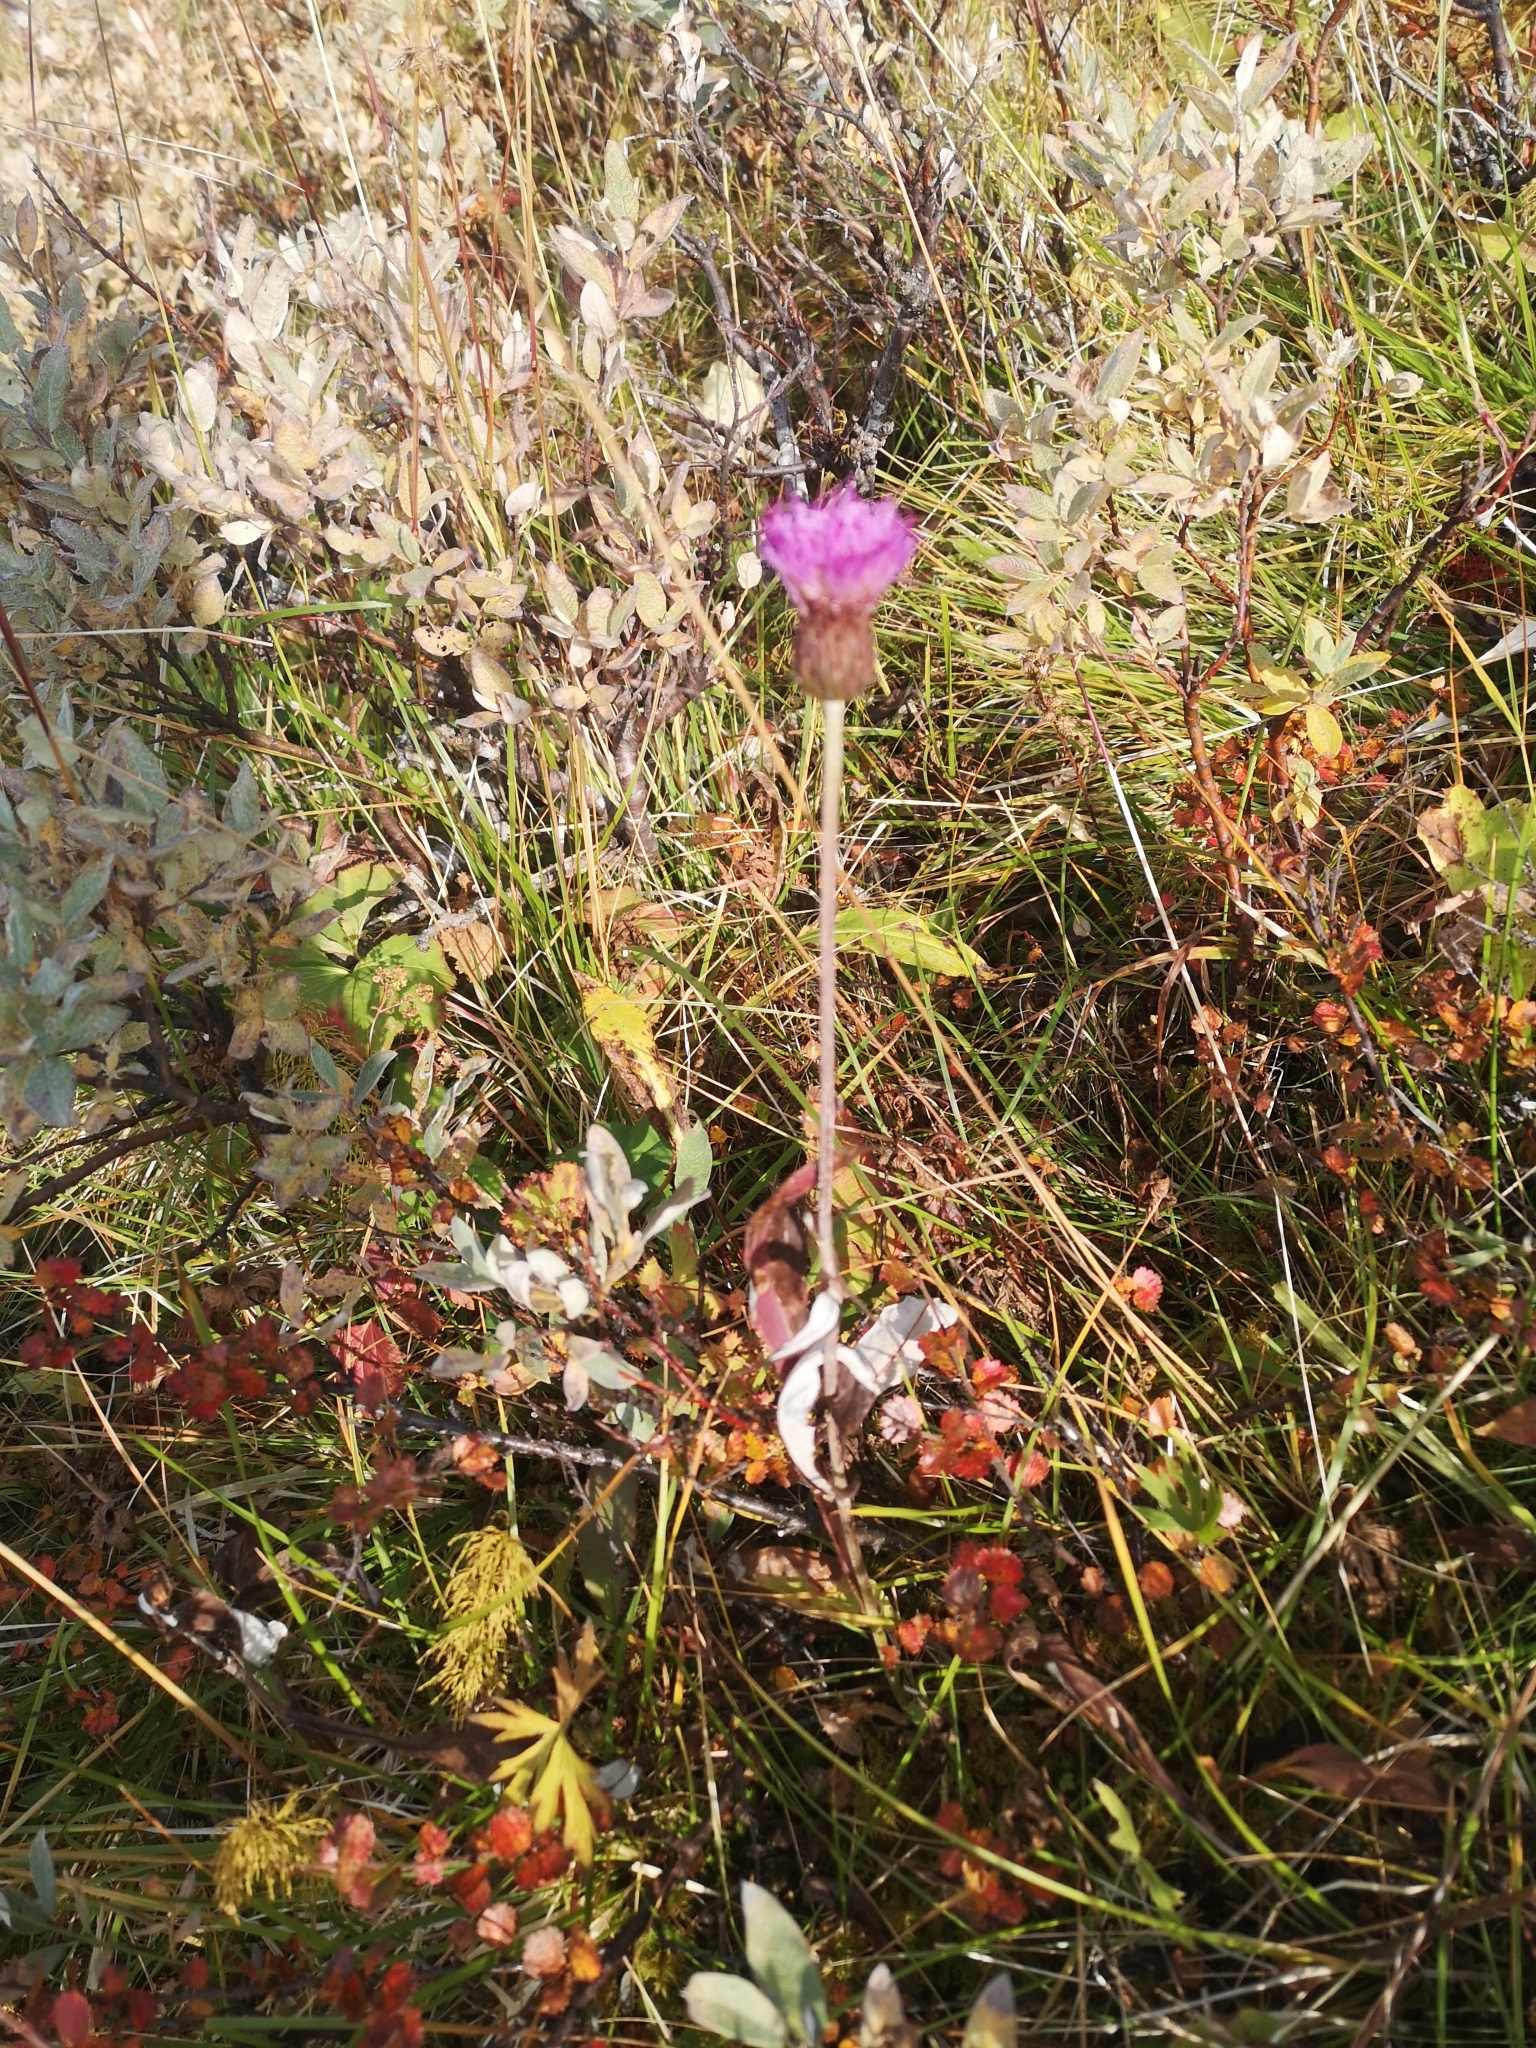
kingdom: Plantae
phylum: Tracheophyta
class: Magnoliopsida
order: Asterales
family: Asteraceae
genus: Cirsium
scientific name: Cirsium heterophyllum
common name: Melancholy thistle
